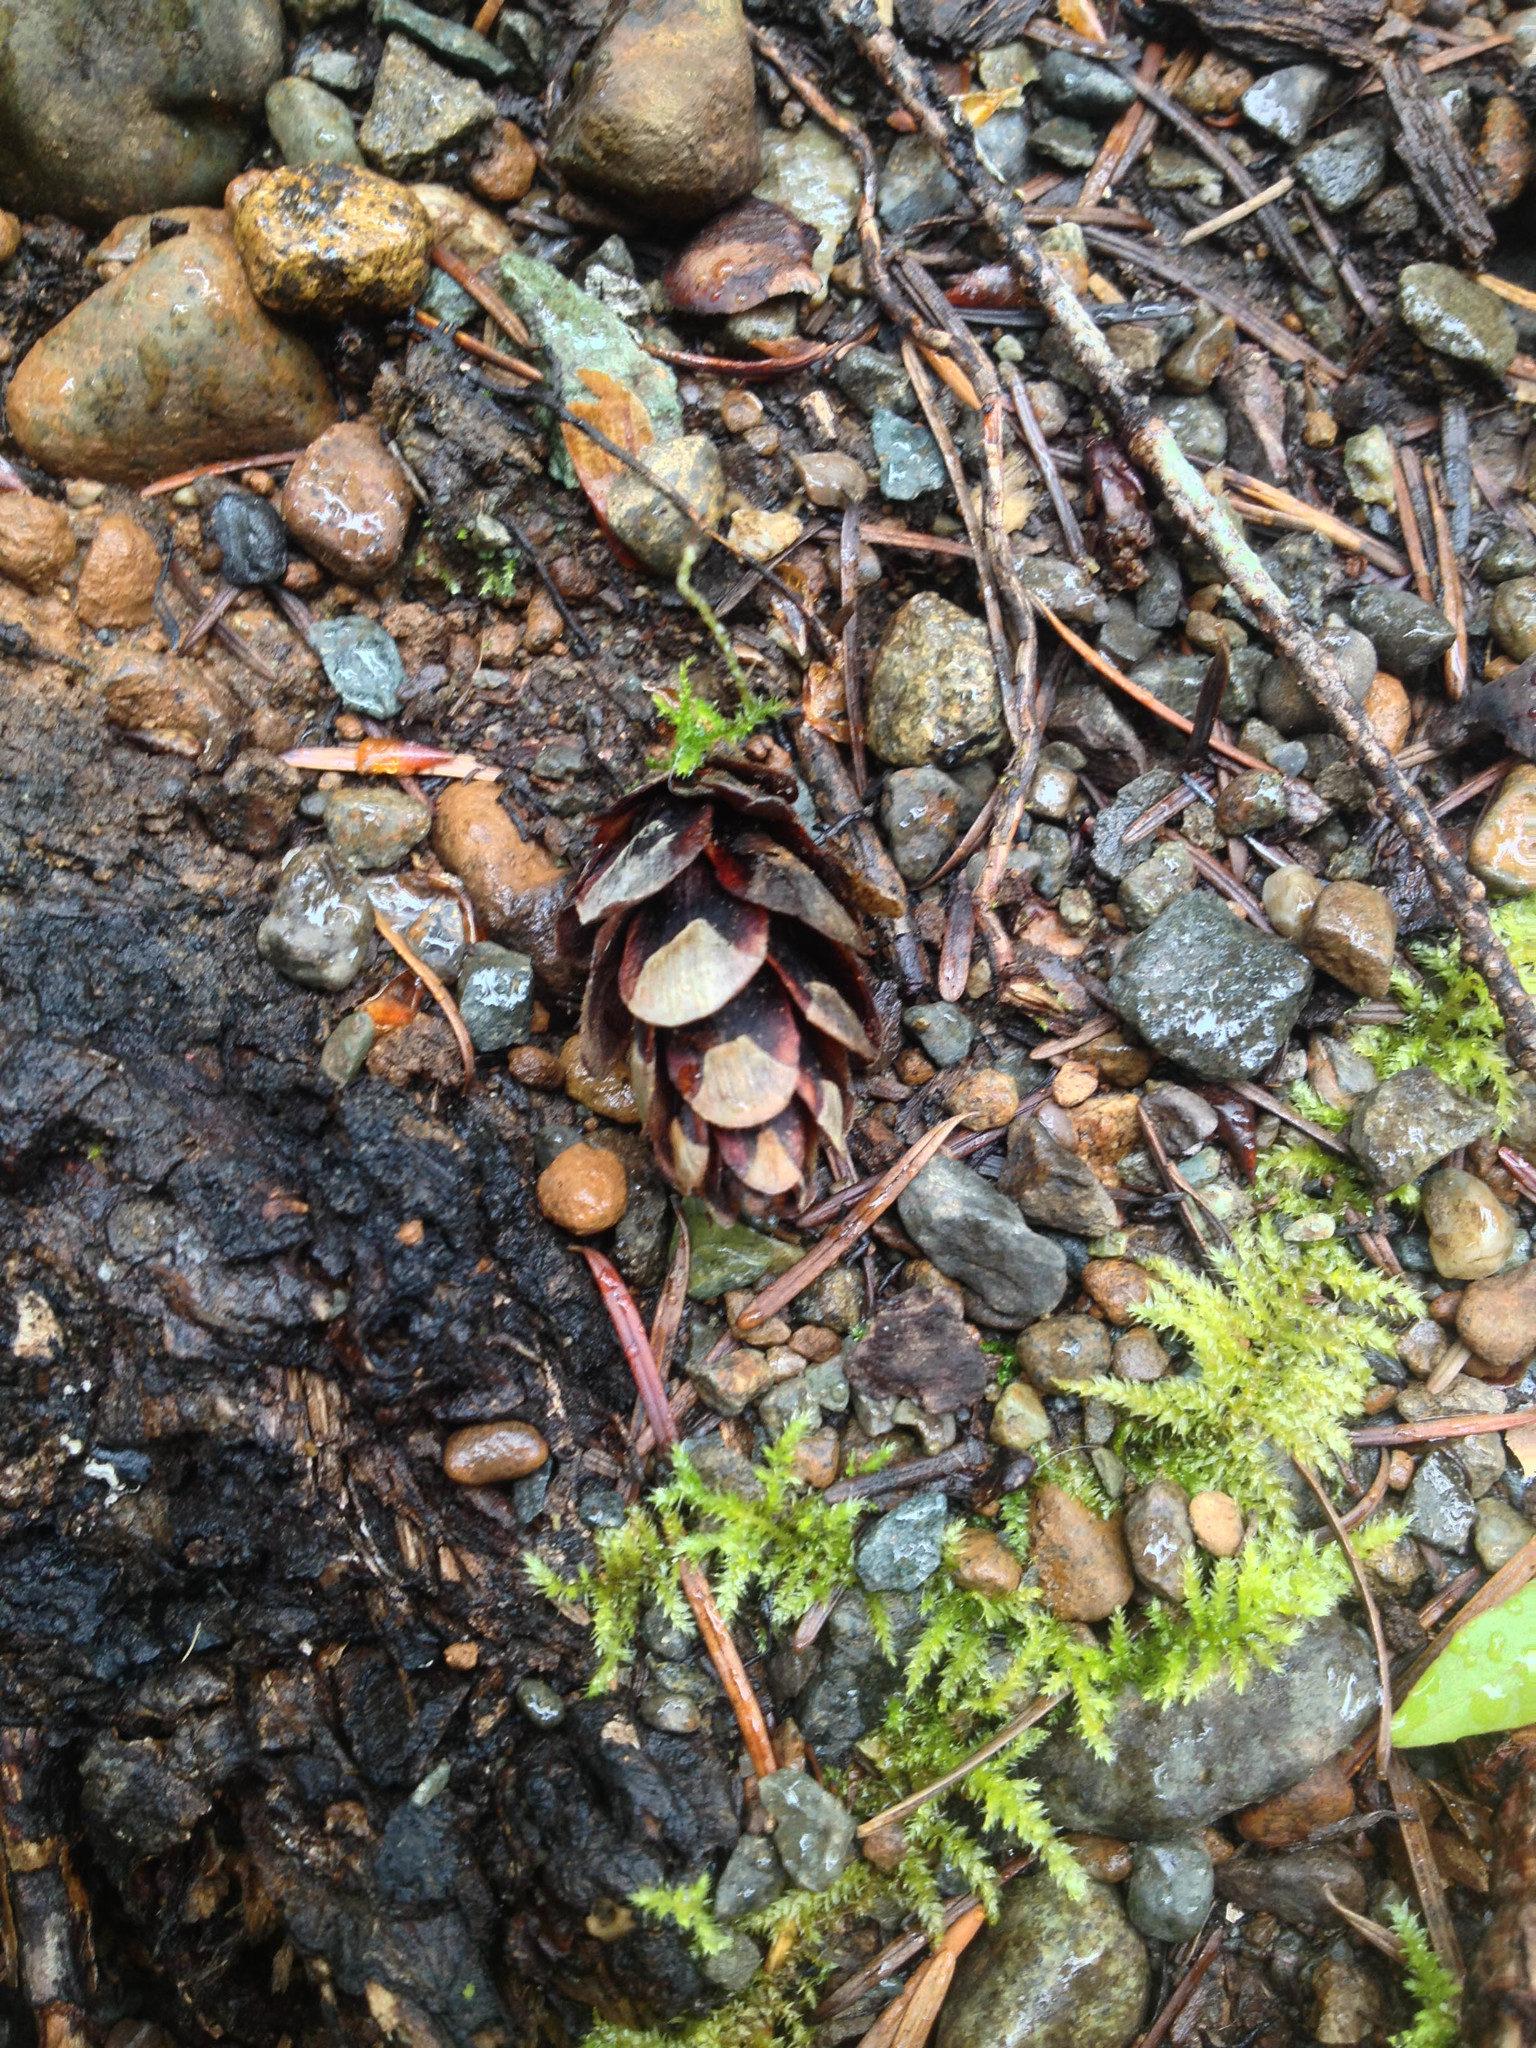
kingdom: Plantae
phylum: Tracheophyta
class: Pinopsida
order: Pinales
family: Pinaceae
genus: Tsuga
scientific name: Tsuga heterophylla
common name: Western hemlock
